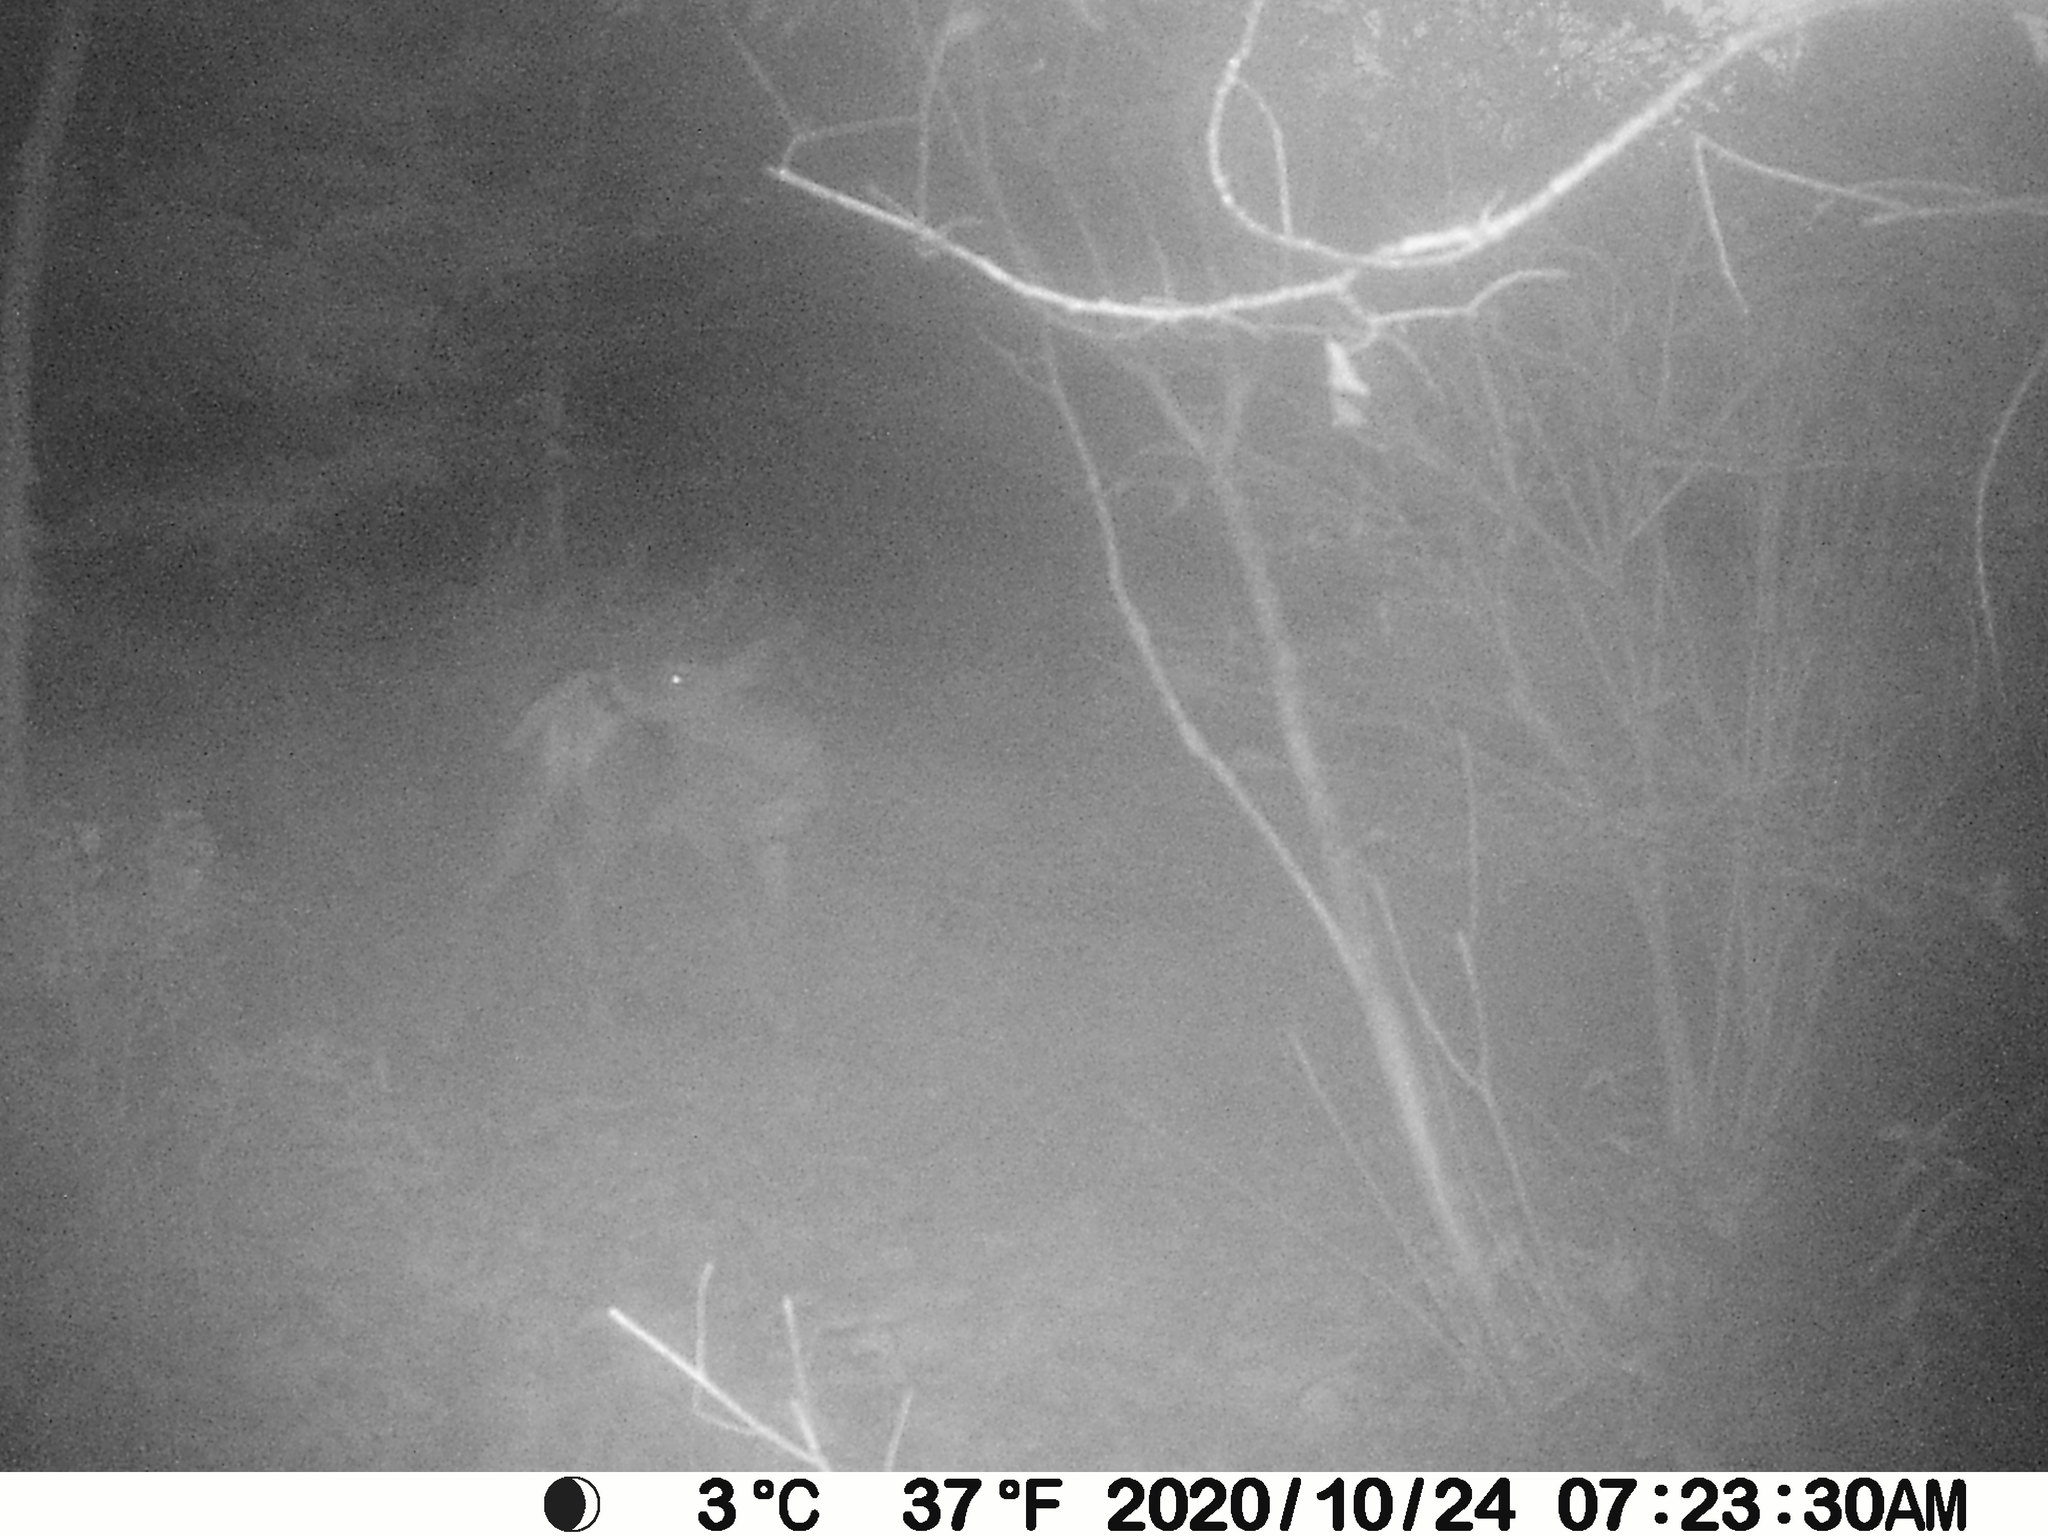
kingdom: Animalia
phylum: Chordata
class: Mammalia
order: Artiodactyla
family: Cervidae
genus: Odocoileus
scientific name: Odocoileus virginianus
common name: White-tailed deer
